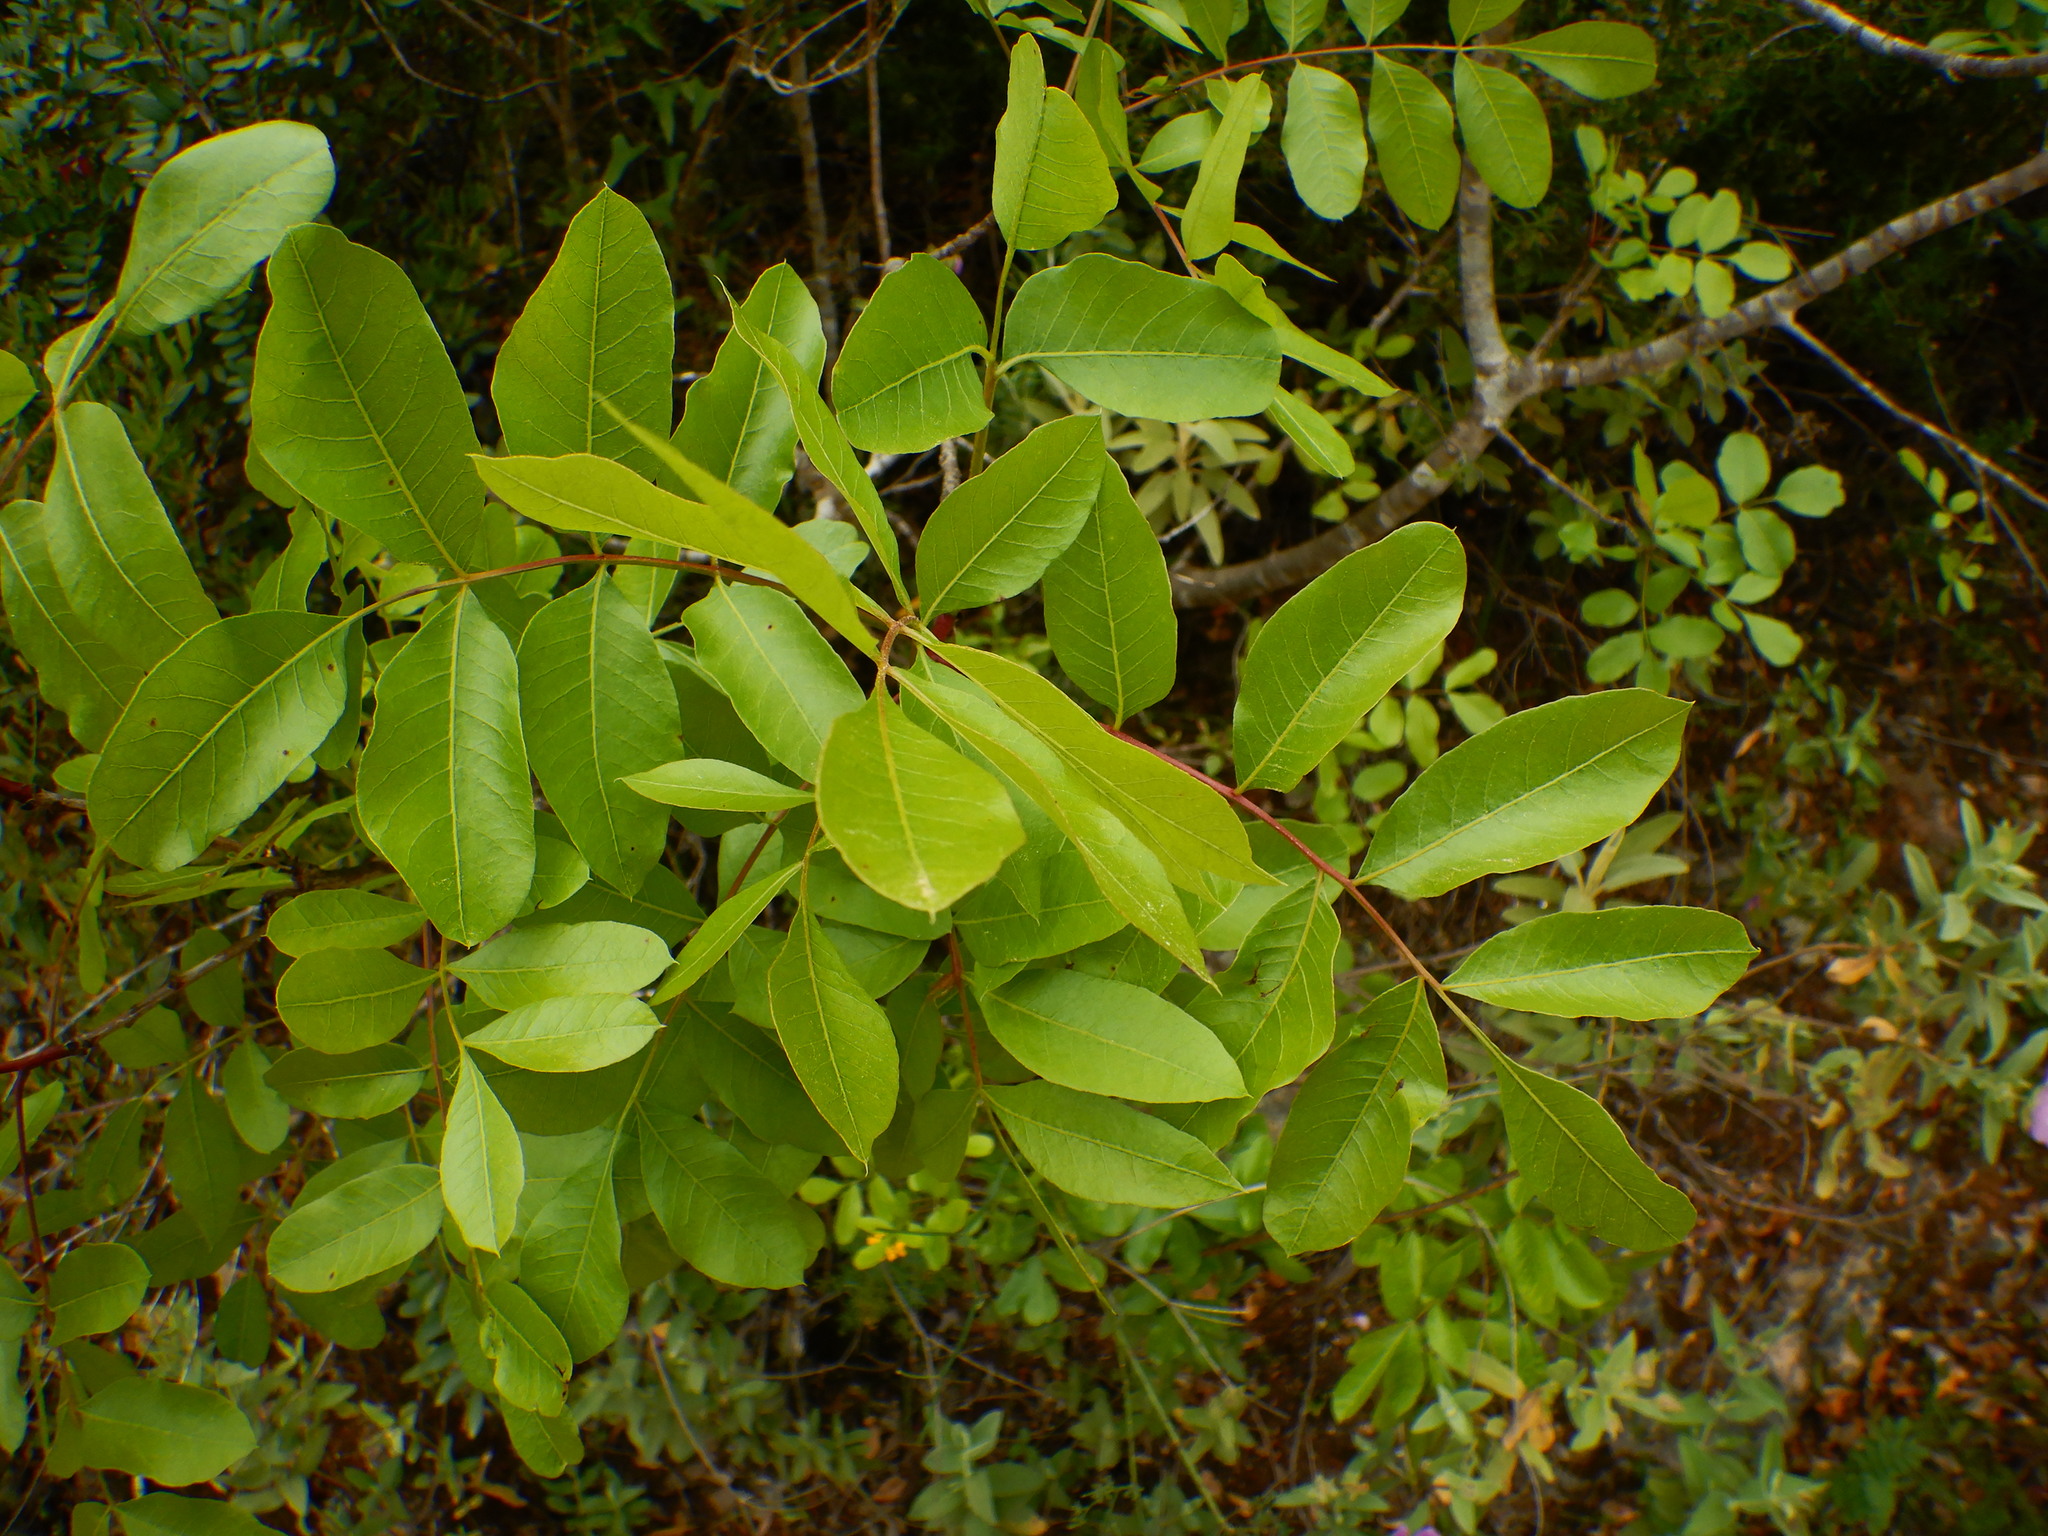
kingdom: Plantae
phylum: Tracheophyta
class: Magnoliopsida
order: Sapindales
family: Anacardiaceae
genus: Pistacia
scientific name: Pistacia terebinthus
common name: Terebinth
